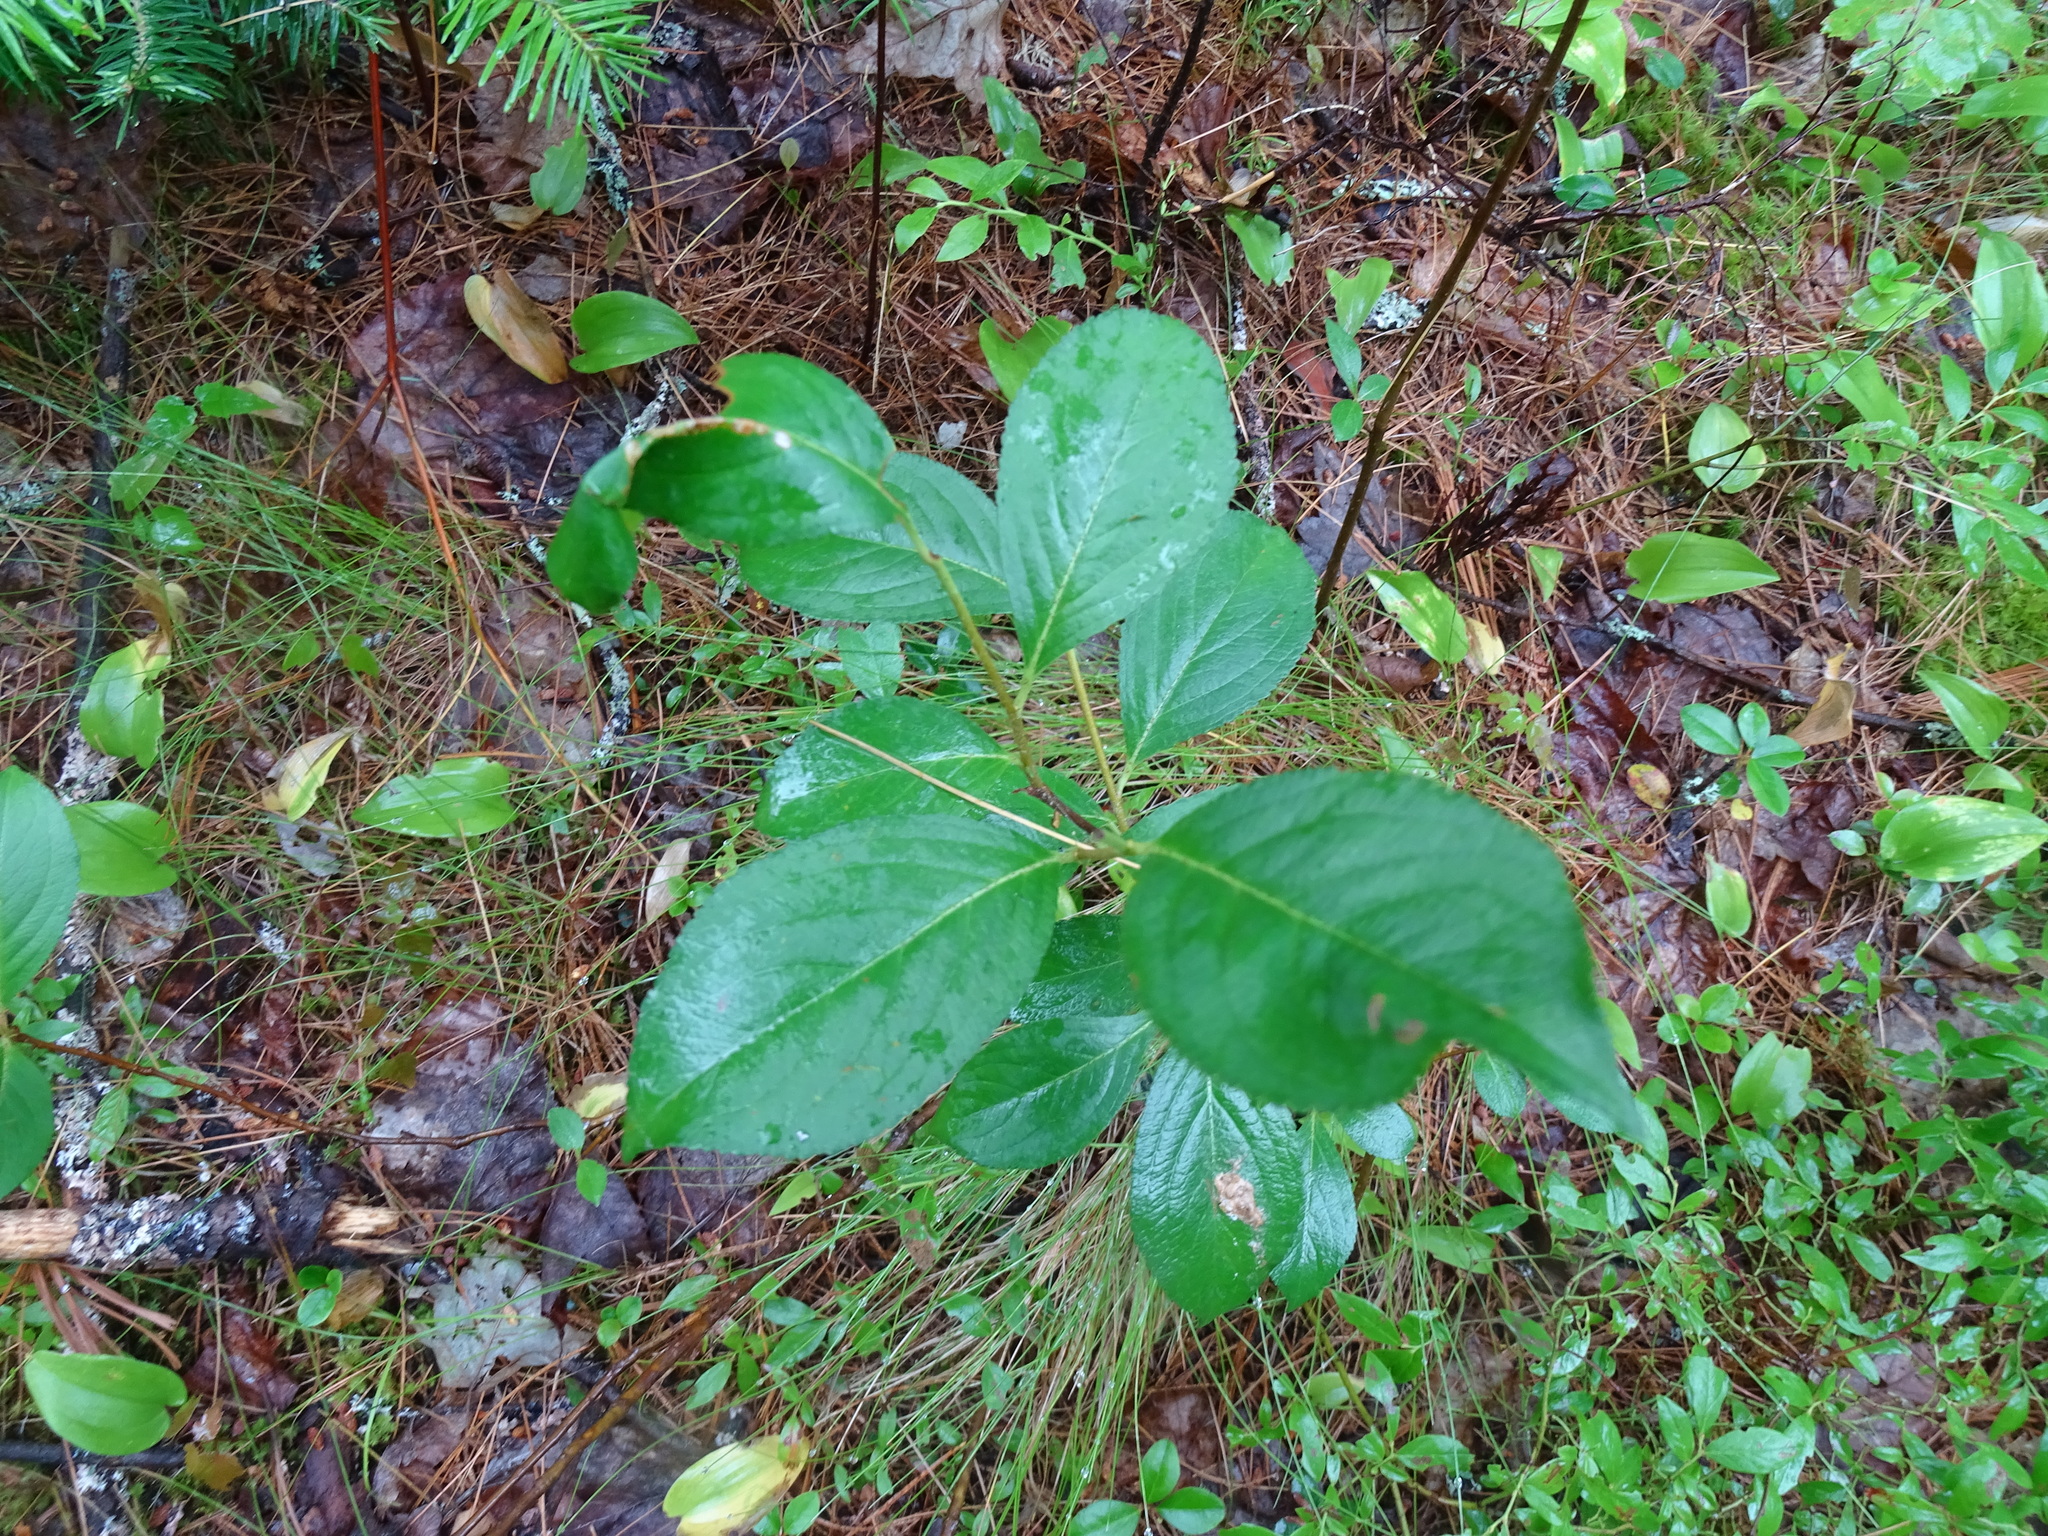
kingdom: Plantae
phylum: Tracheophyta
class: Magnoliopsida
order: Rosales
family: Rosaceae
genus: Aronia
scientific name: Aronia melanocarpa
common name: Black chokeberry
